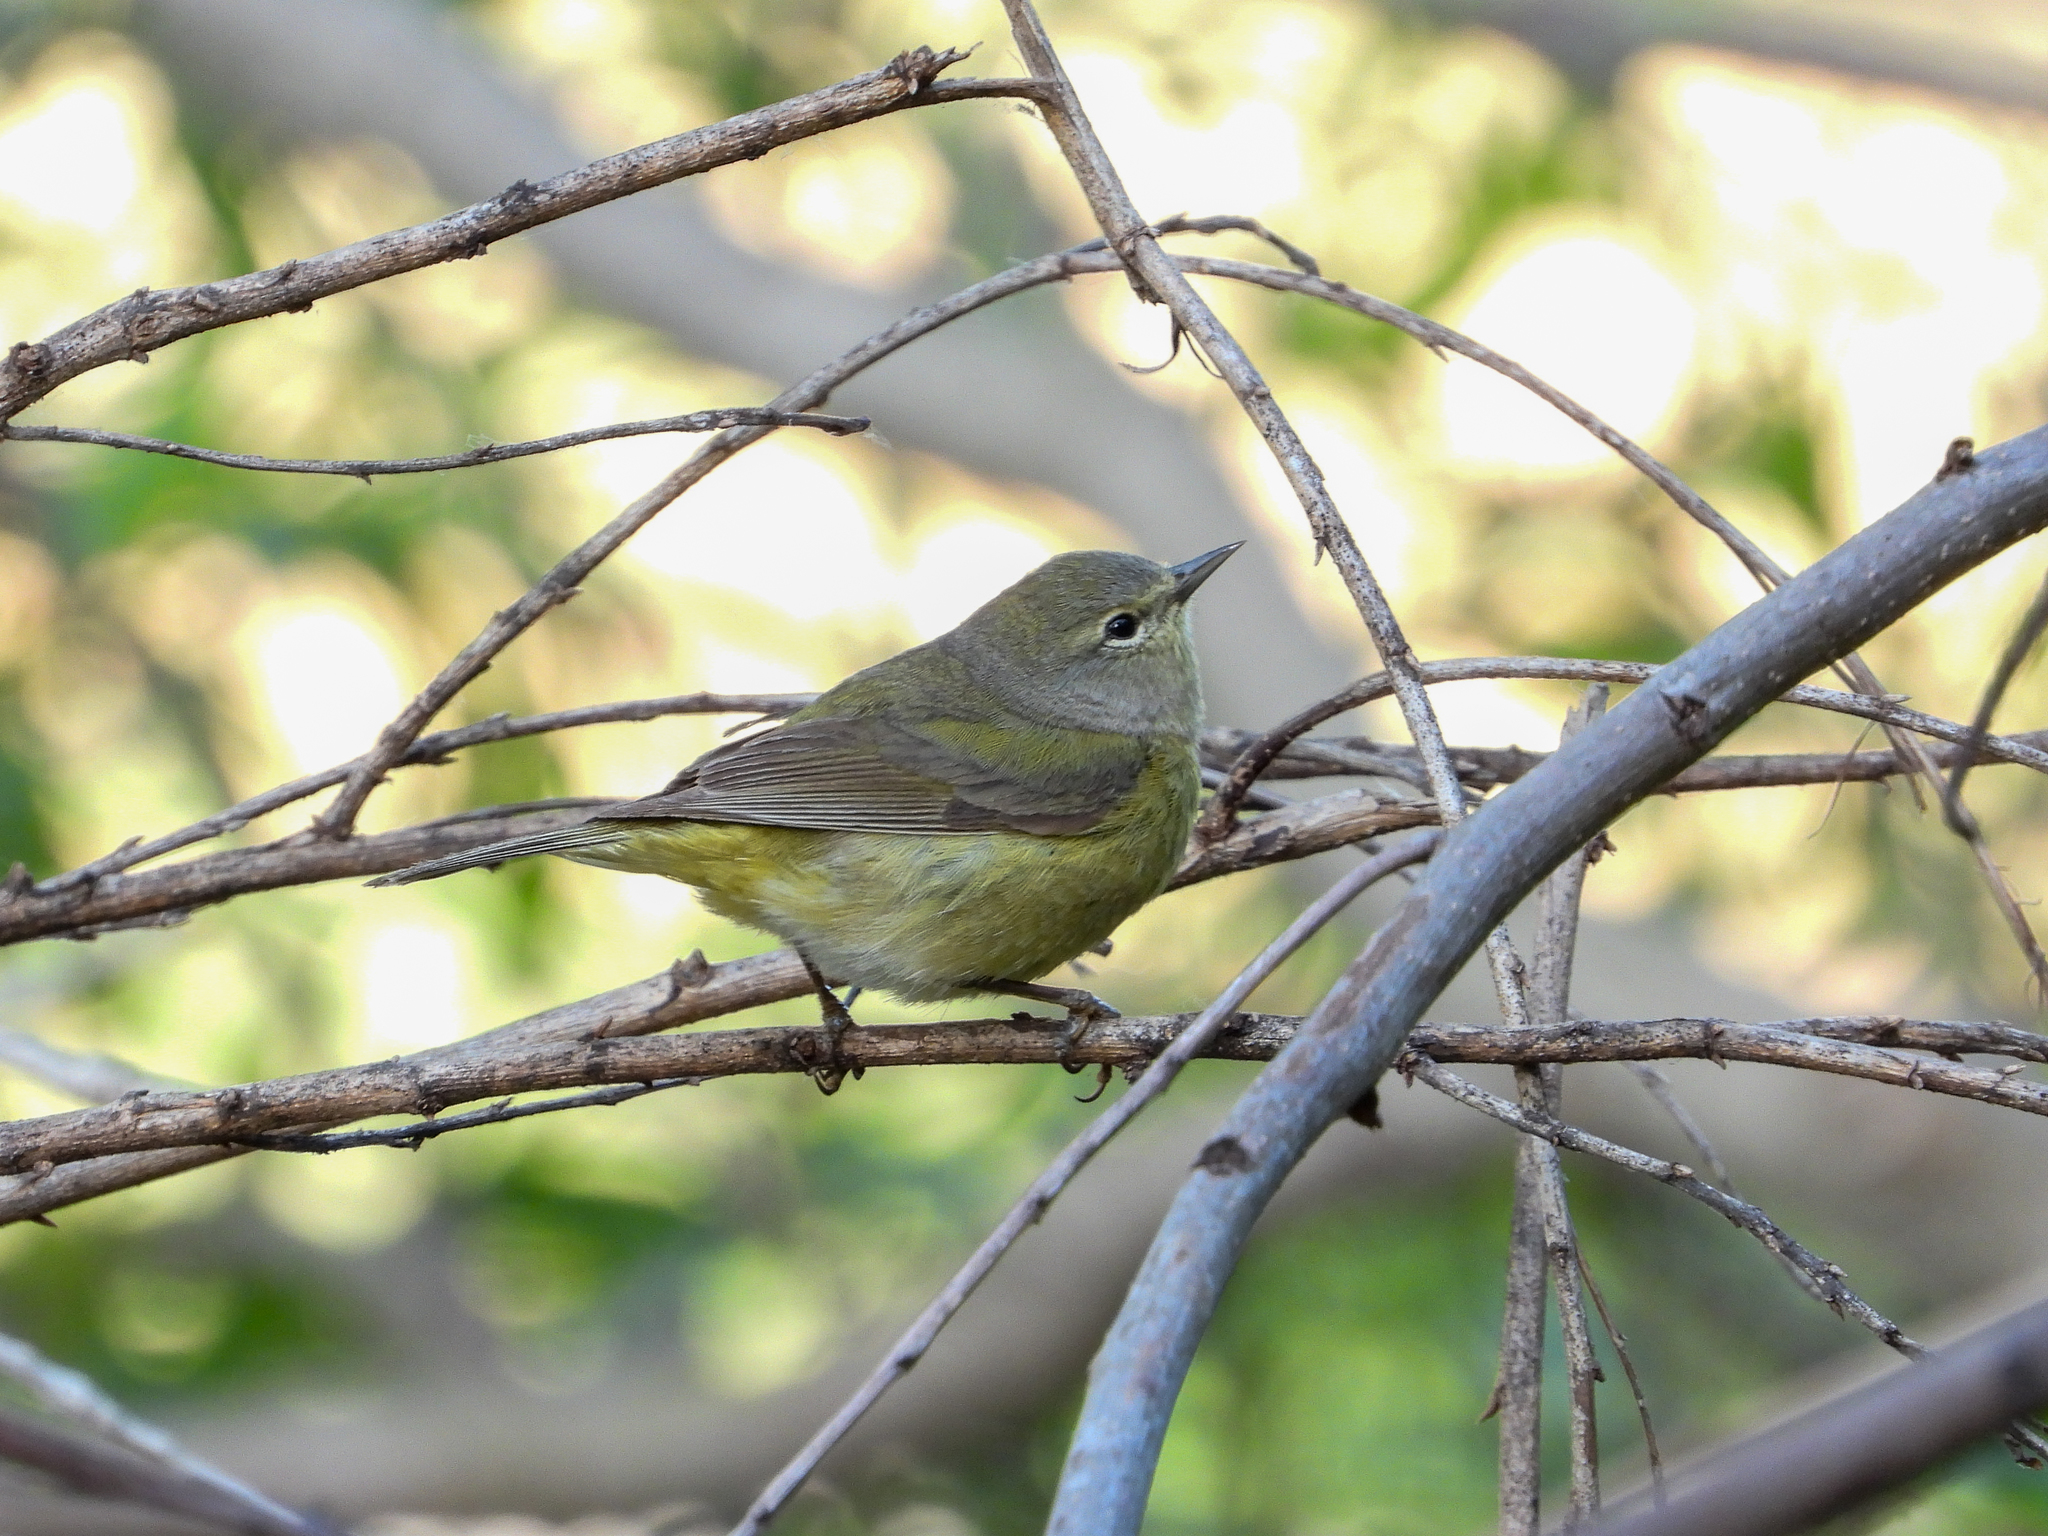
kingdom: Animalia
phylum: Chordata
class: Aves
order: Passeriformes
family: Parulidae
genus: Leiothlypis
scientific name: Leiothlypis celata
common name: Orange-crowned warbler
